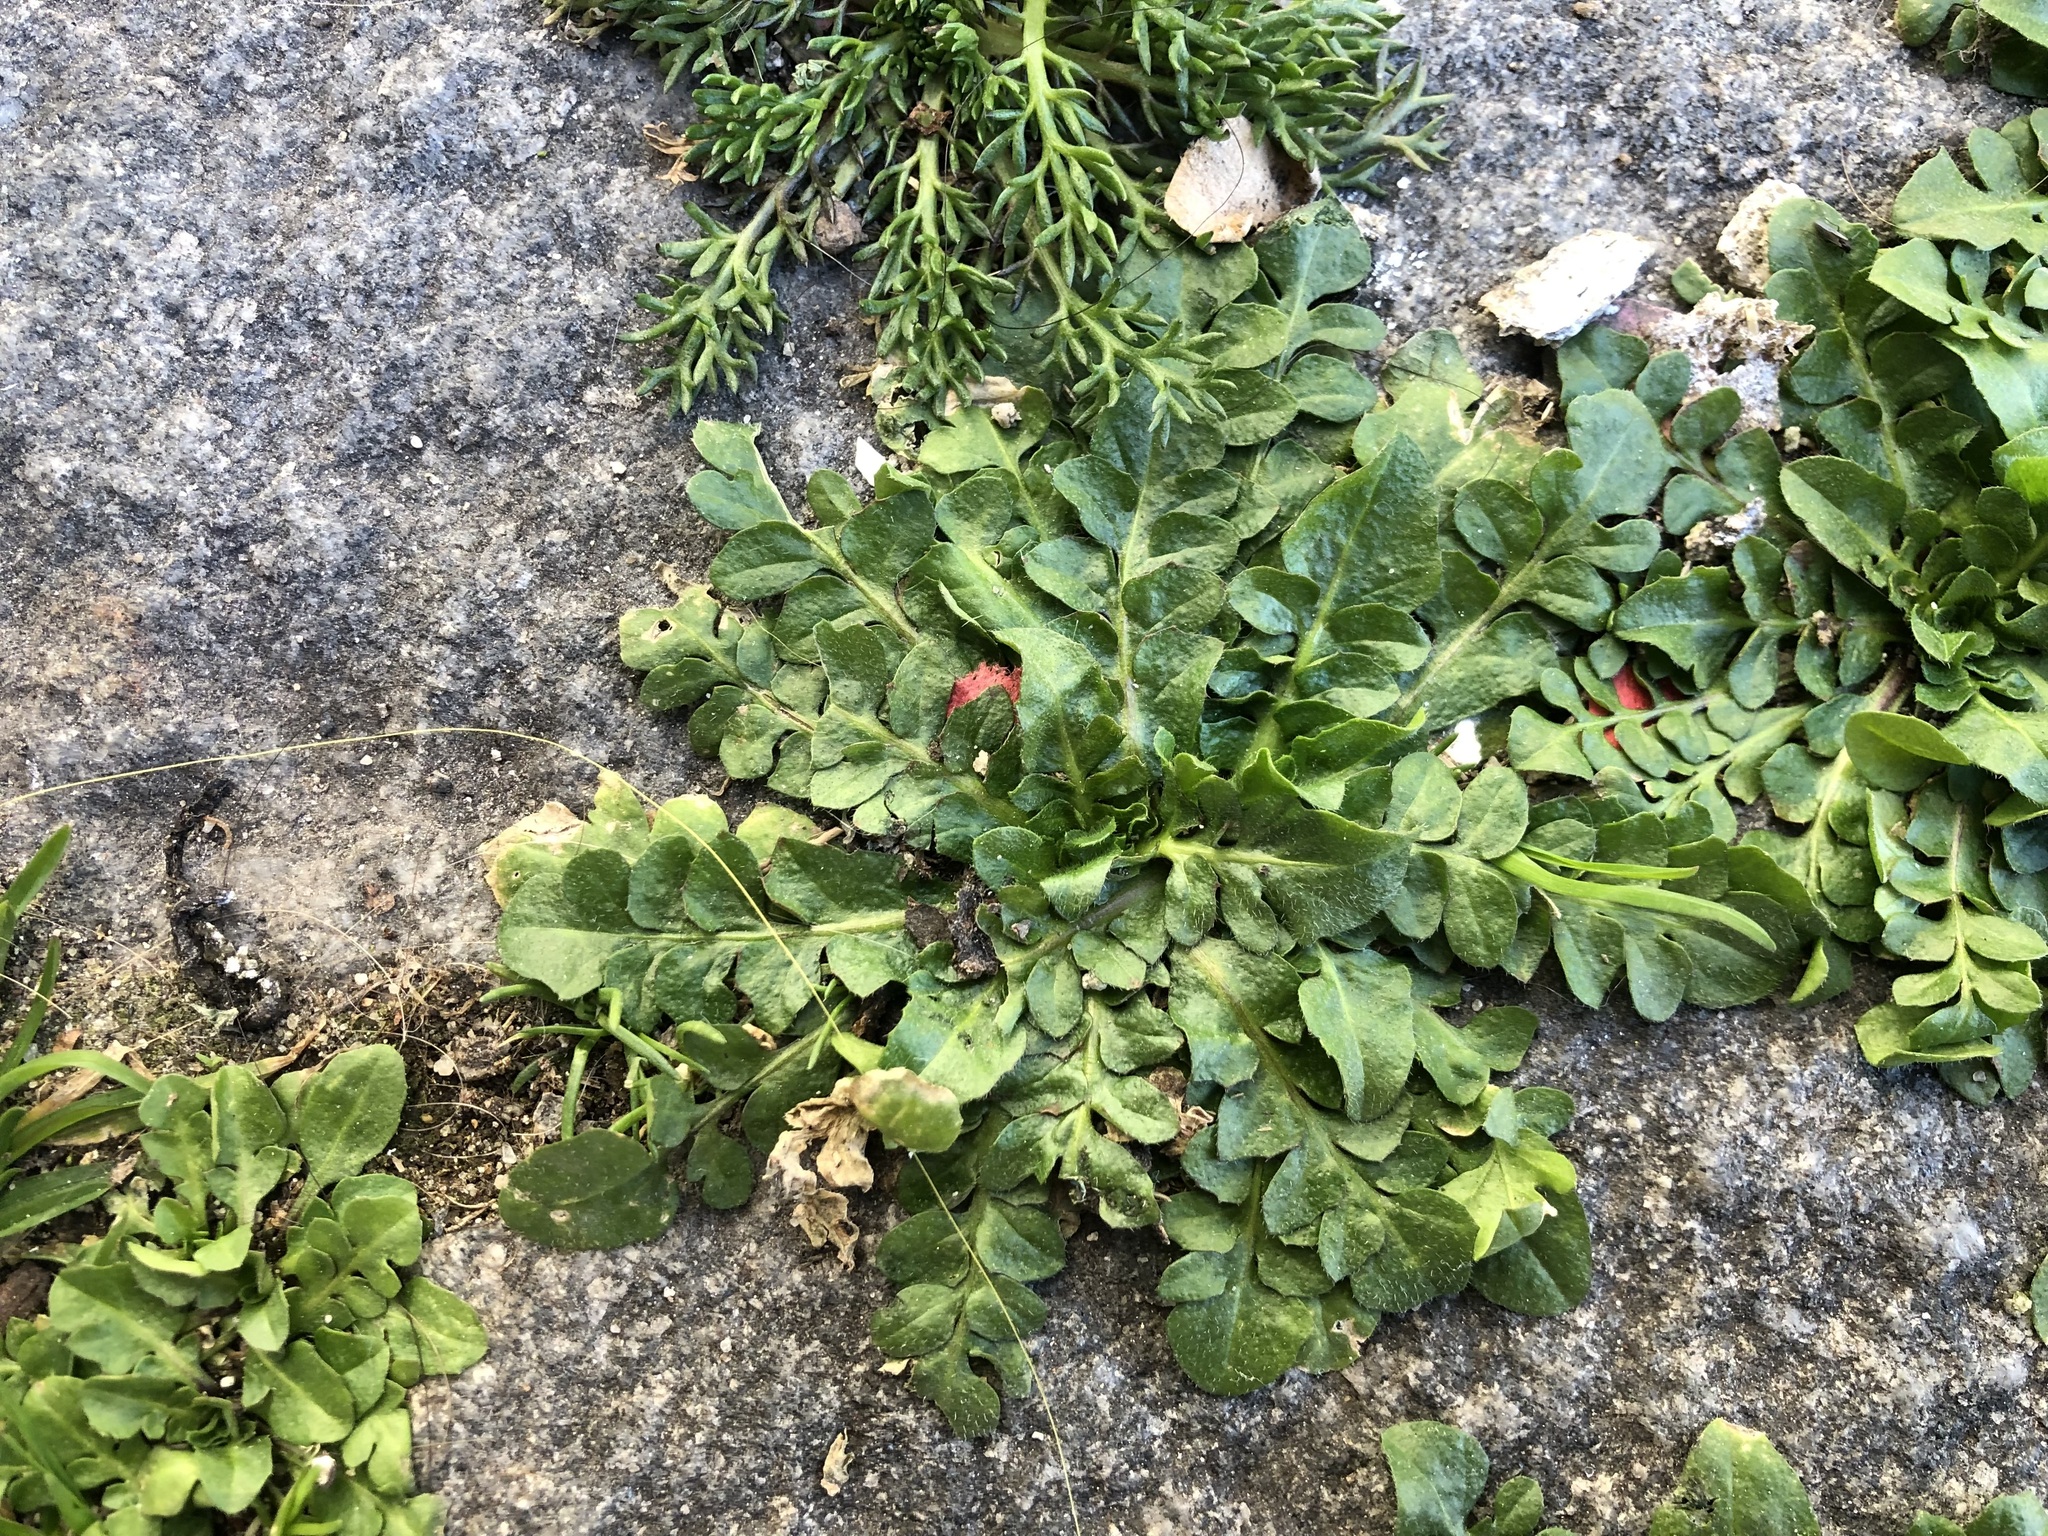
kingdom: Plantae
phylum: Tracheophyta
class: Magnoliopsida
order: Brassicales
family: Brassicaceae
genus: Capsella
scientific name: Capsella bursa-pastoris
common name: Shepherd's purse
